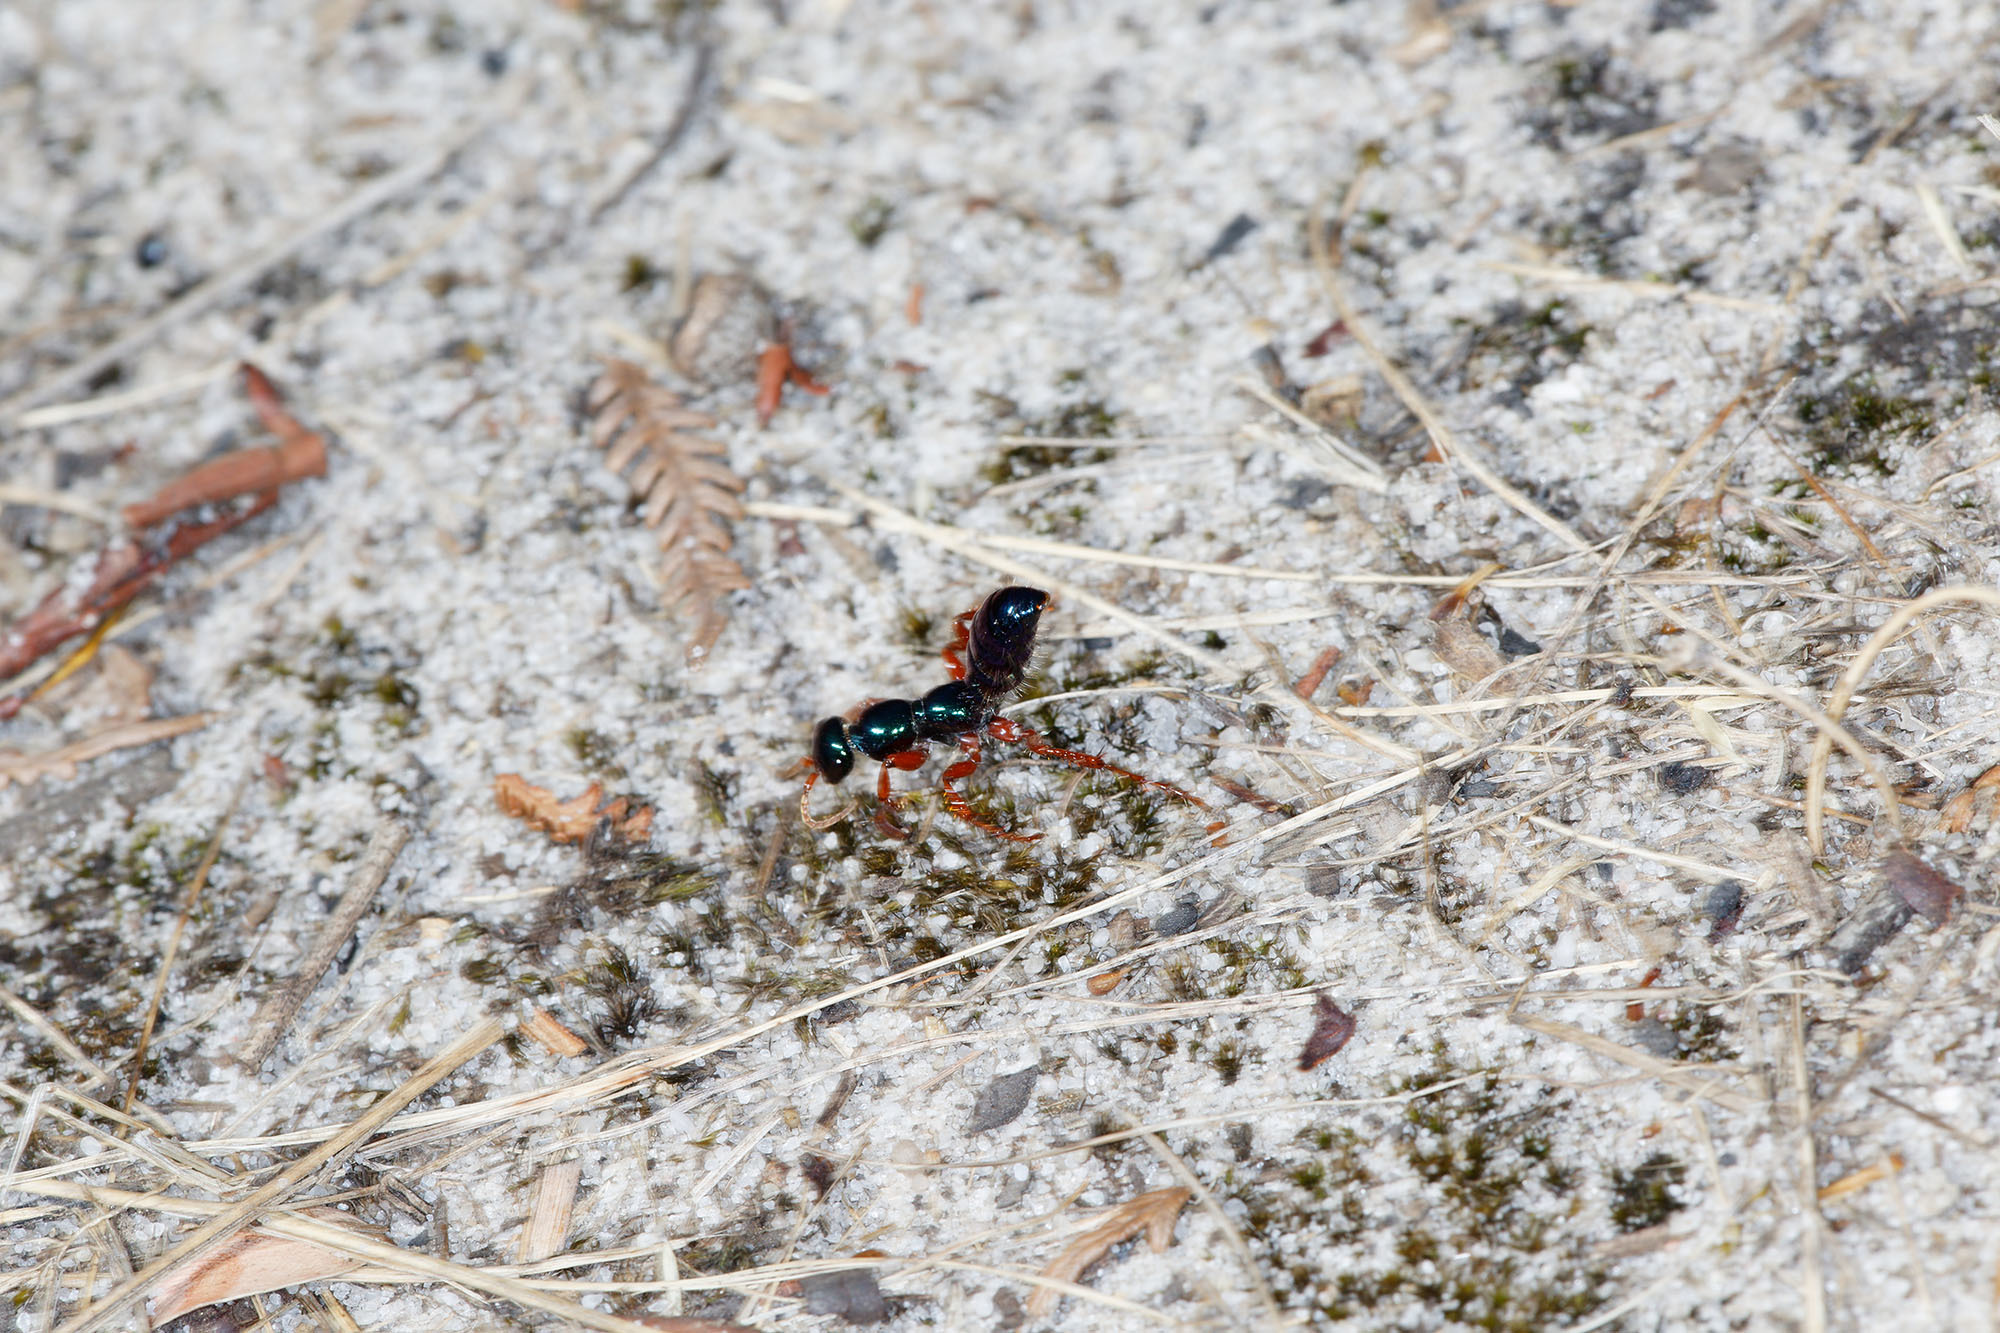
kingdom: Animalia
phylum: Arthropoda
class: Insecta
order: Hymenoptera
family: Tiphiidae
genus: Diamma
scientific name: Diamma
